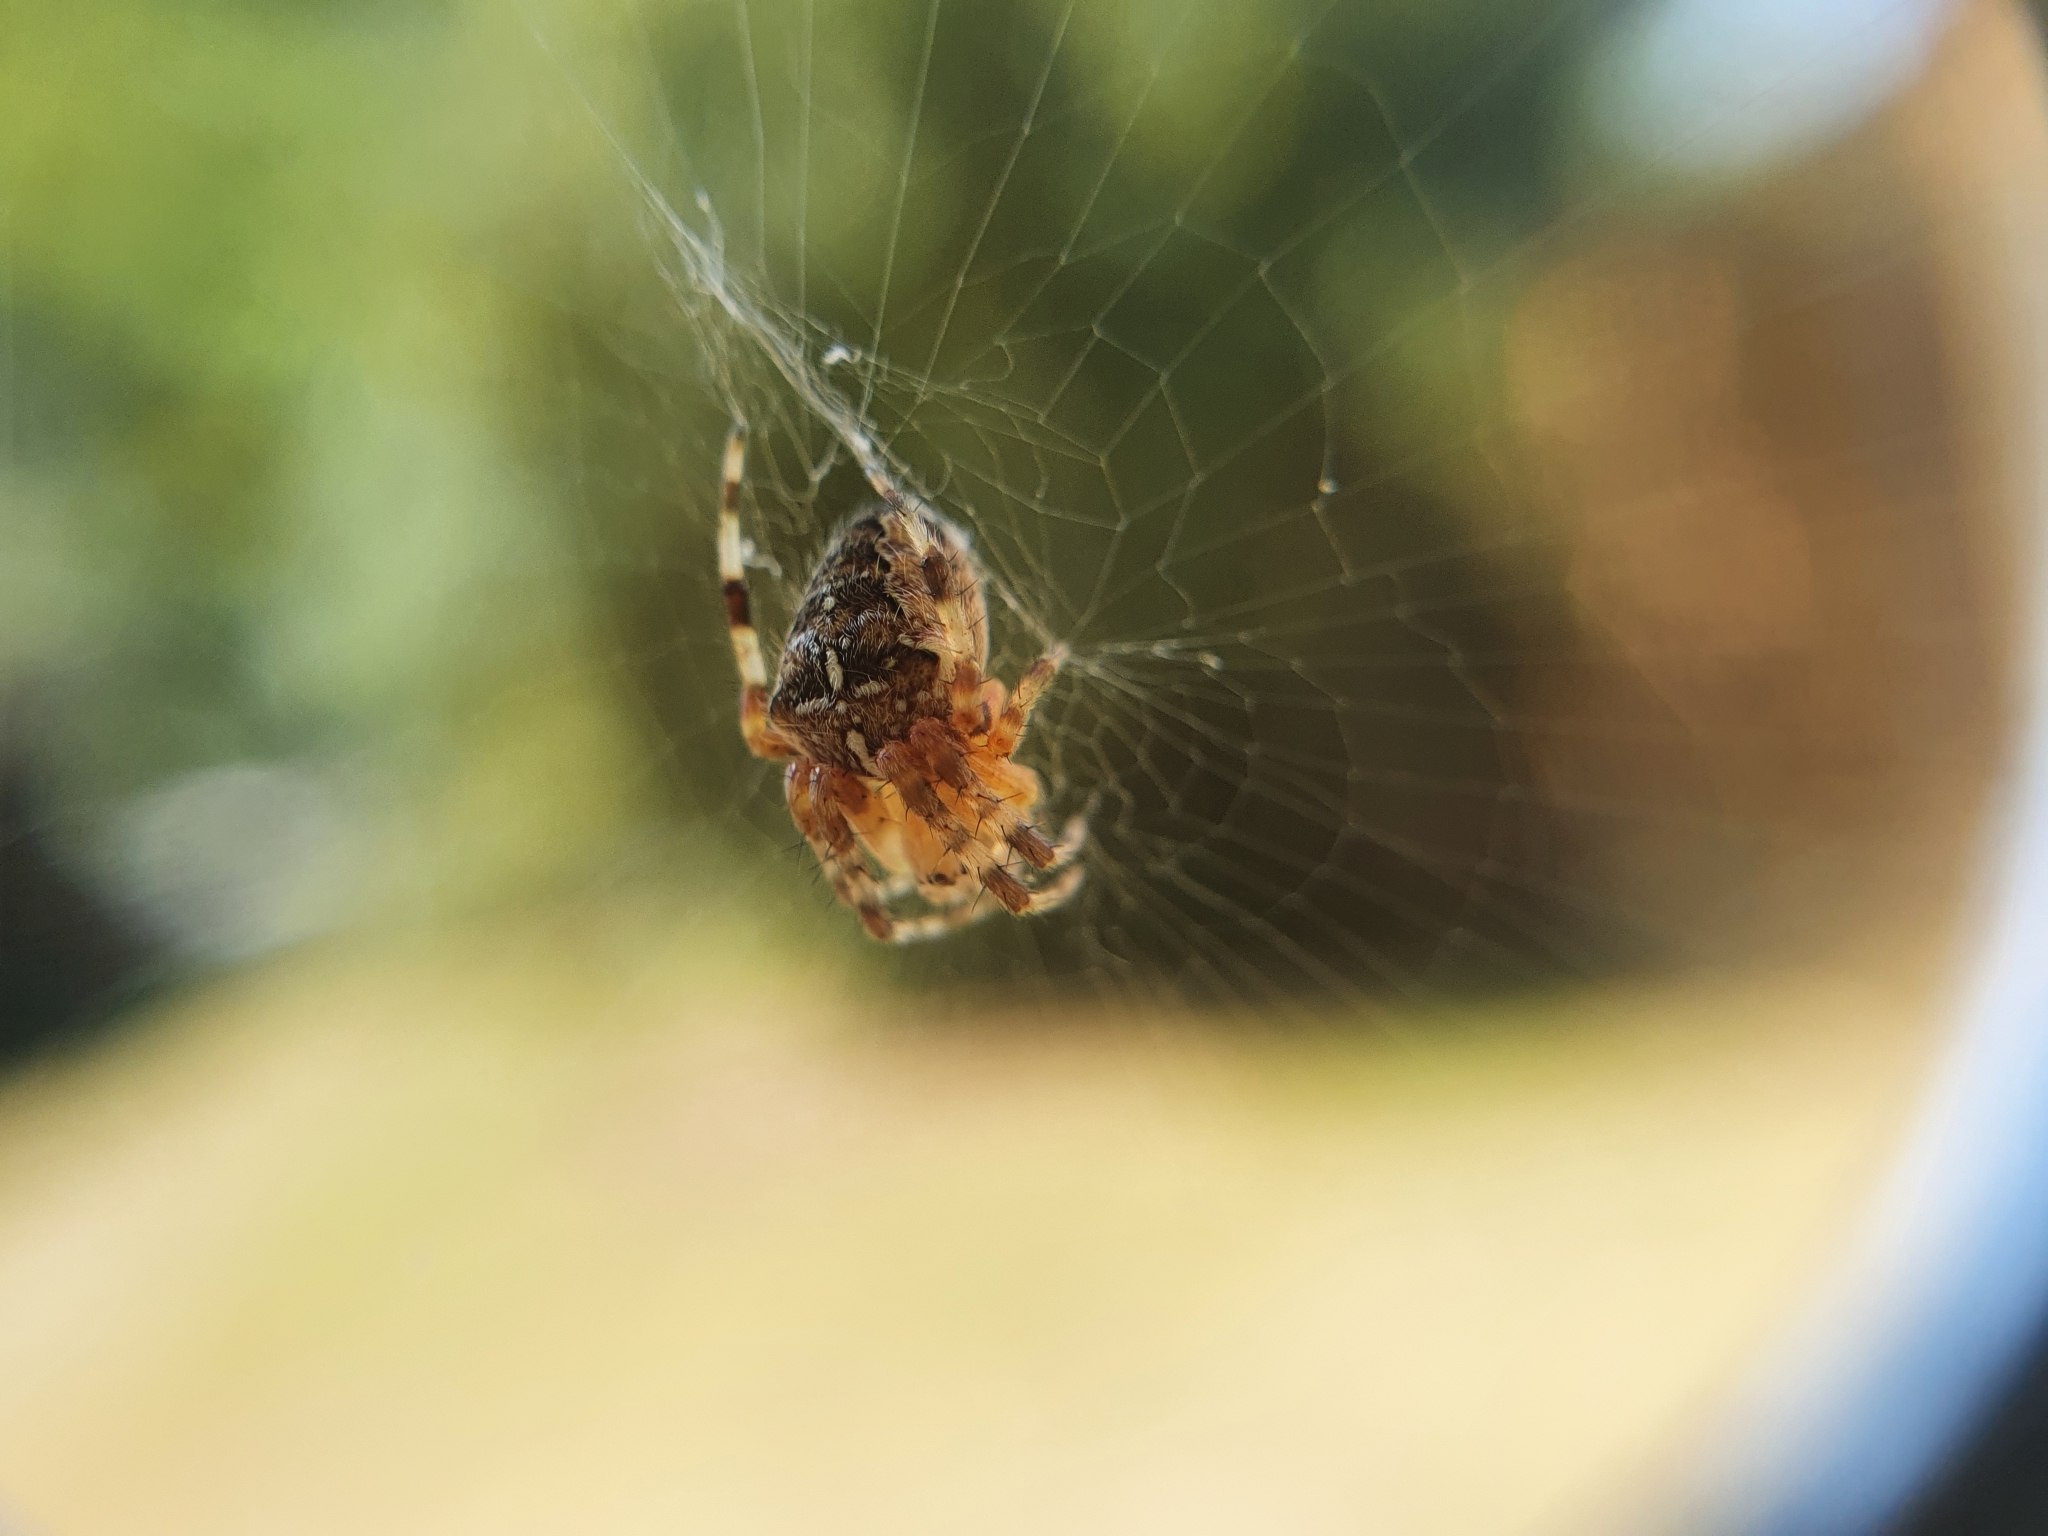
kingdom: Animalia
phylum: Arthropoda
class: Arachnida
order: Araneae
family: Araneidae
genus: Araneus
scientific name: Araneus diadematus
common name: Cross orbweaver
